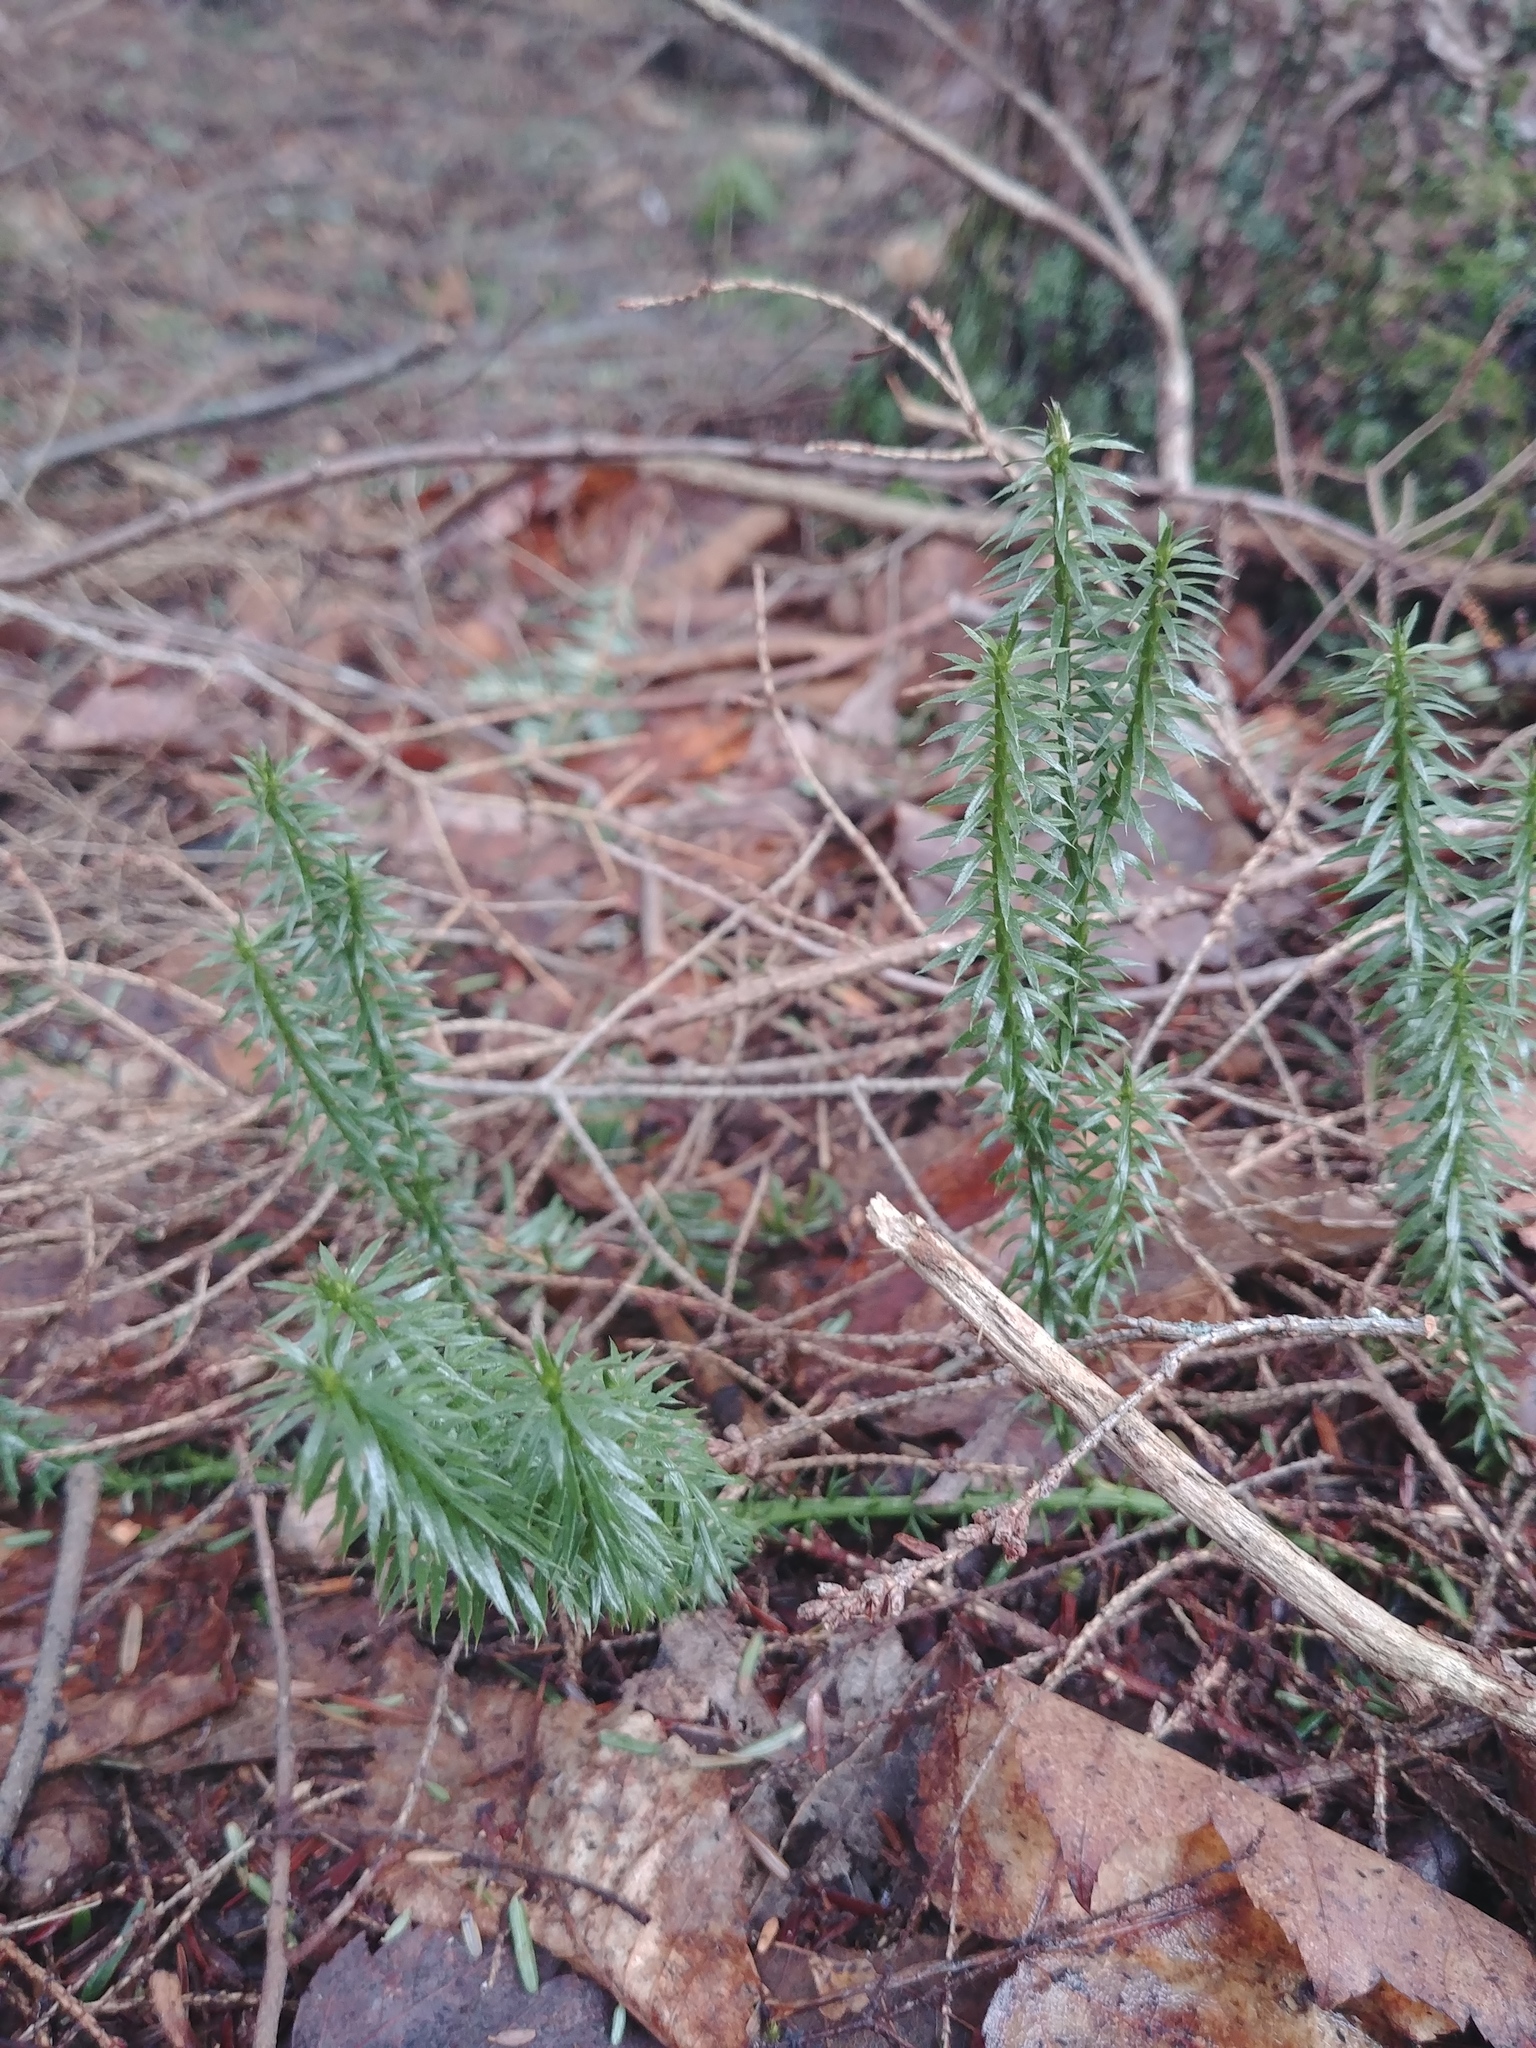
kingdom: Plantae
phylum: Tracheophyta
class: Lycopodiopsida
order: Lycopodiales
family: Lycopodiaceae
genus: Spinulum
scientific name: Spinulum annotinum
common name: Interrupted club-moss
